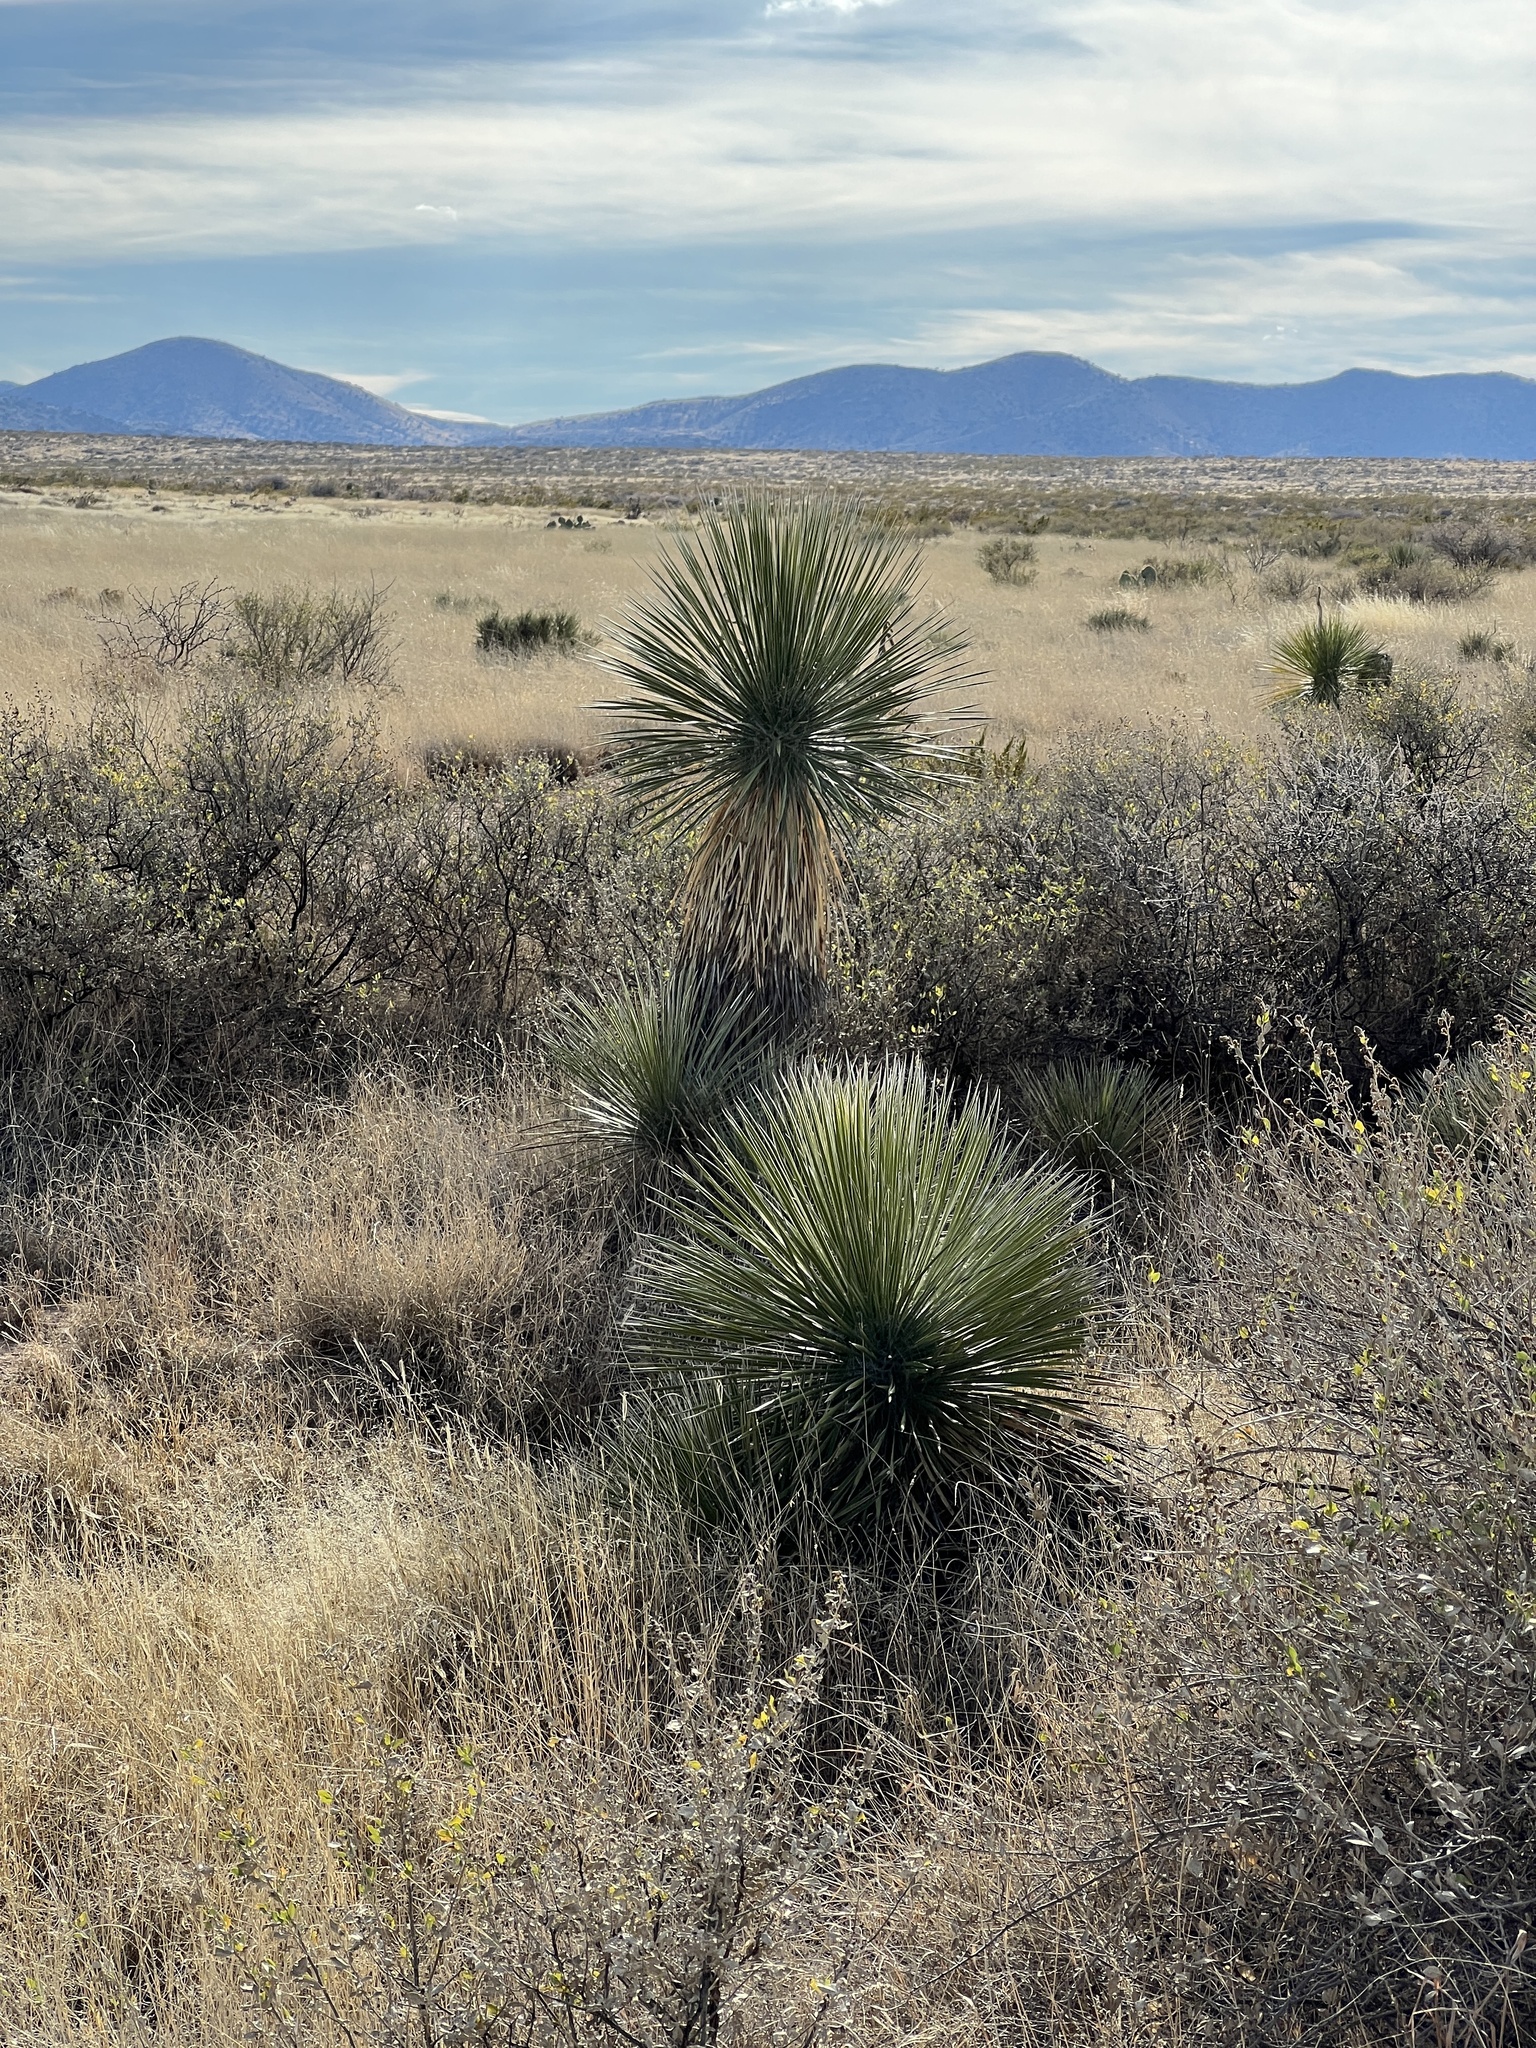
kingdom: Plantae
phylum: Tracheophyta
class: Liliopsida
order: Asparagales
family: Asparagaceae
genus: Yucca
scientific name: Yucca elata
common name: Palmella
